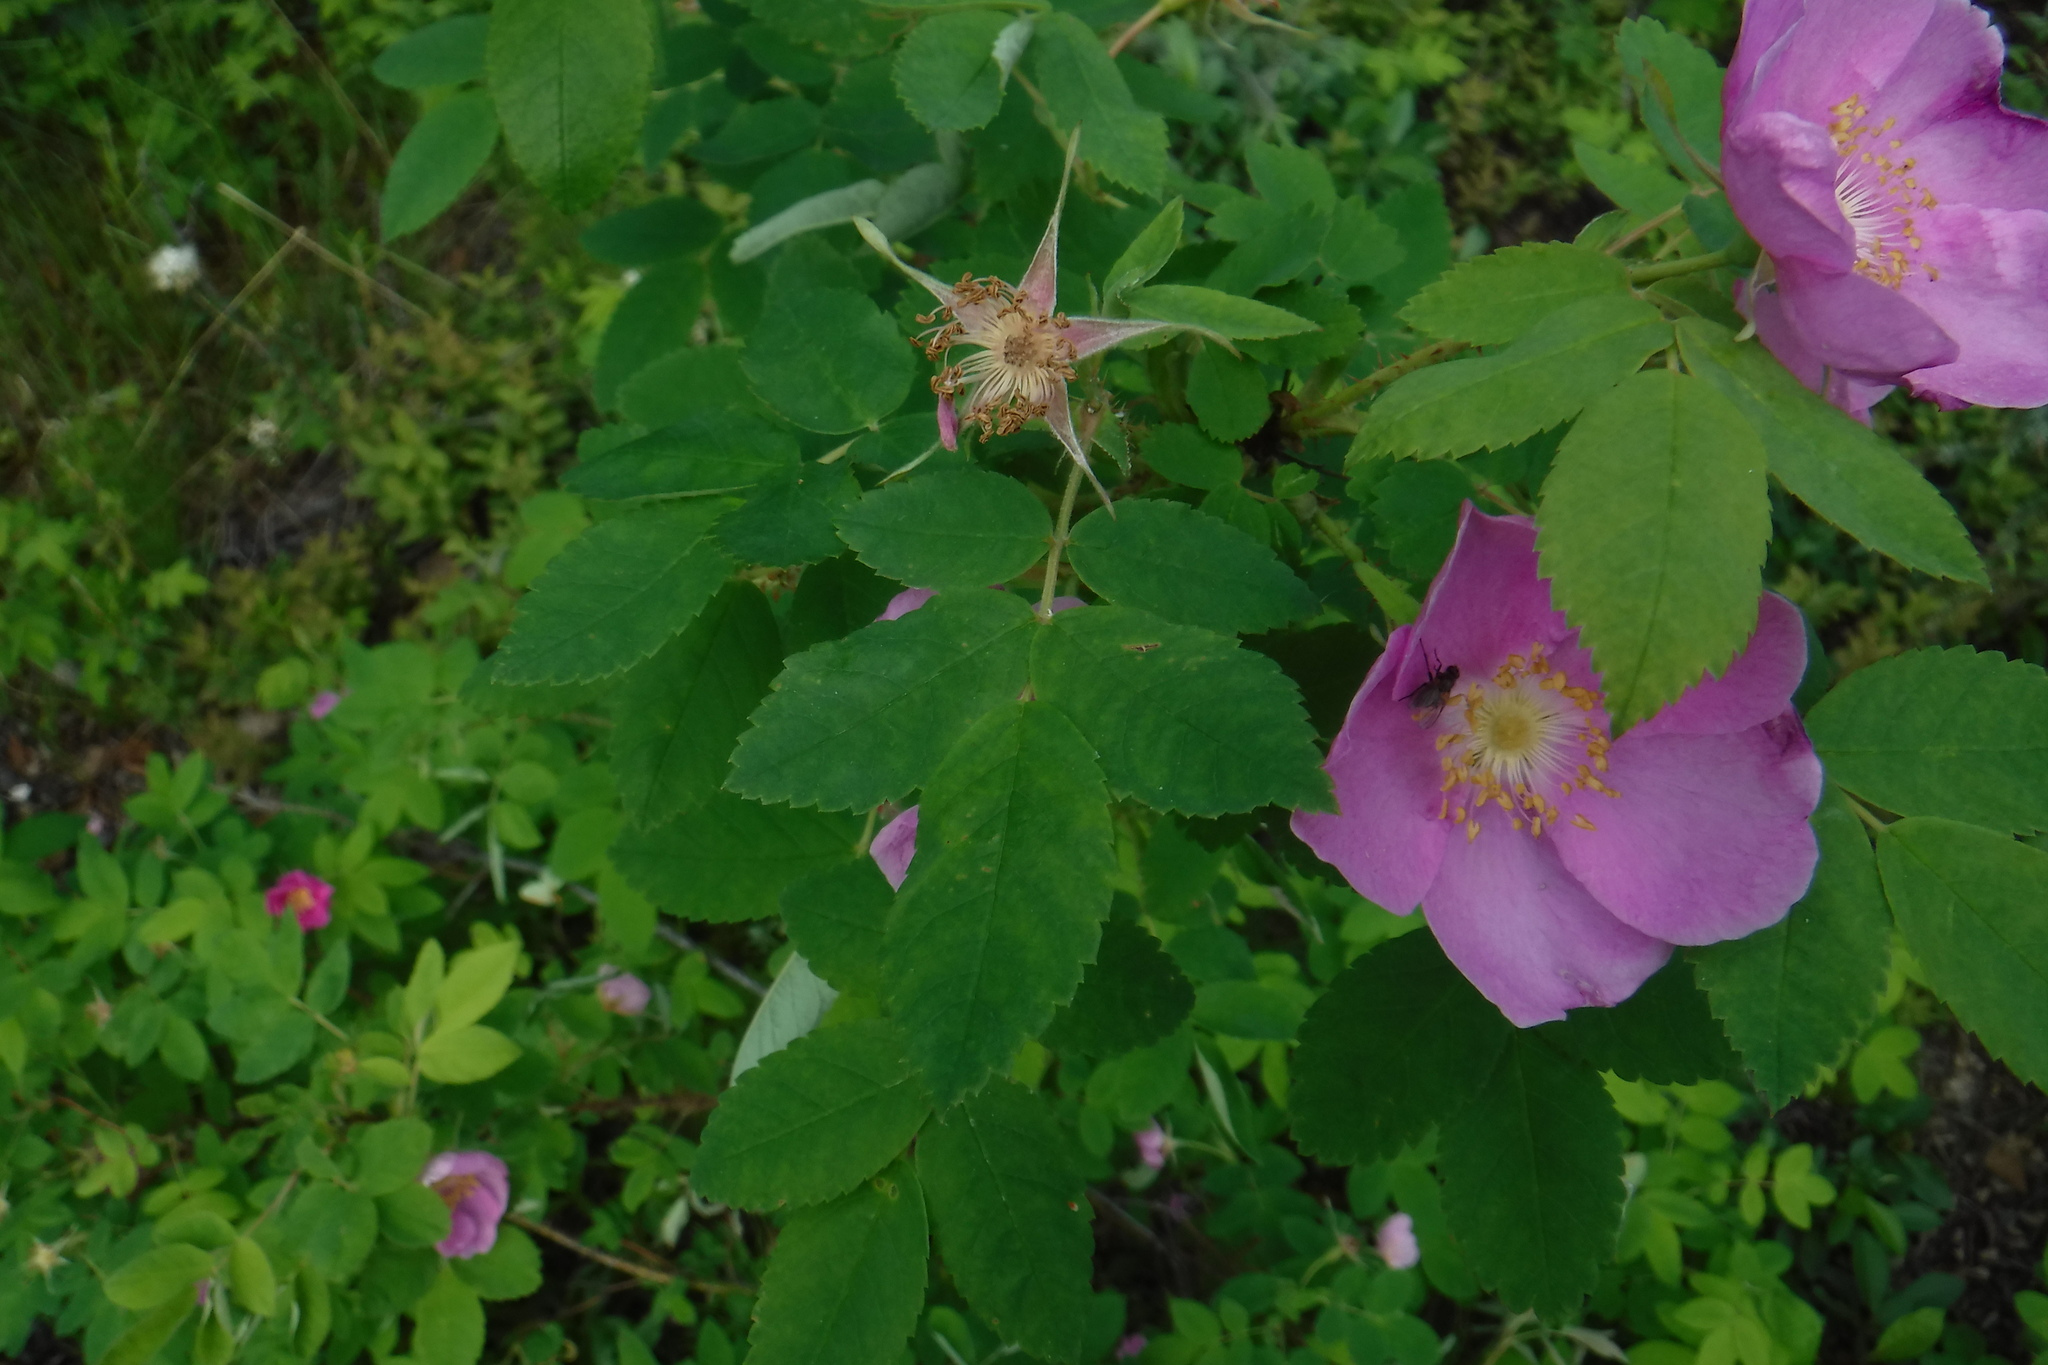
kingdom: Plantae
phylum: Tracheophyta
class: Magnoliopsida
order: Rosales
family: Rosaceae
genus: Rosa
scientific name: Rosa acicularis
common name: Prickly rose
